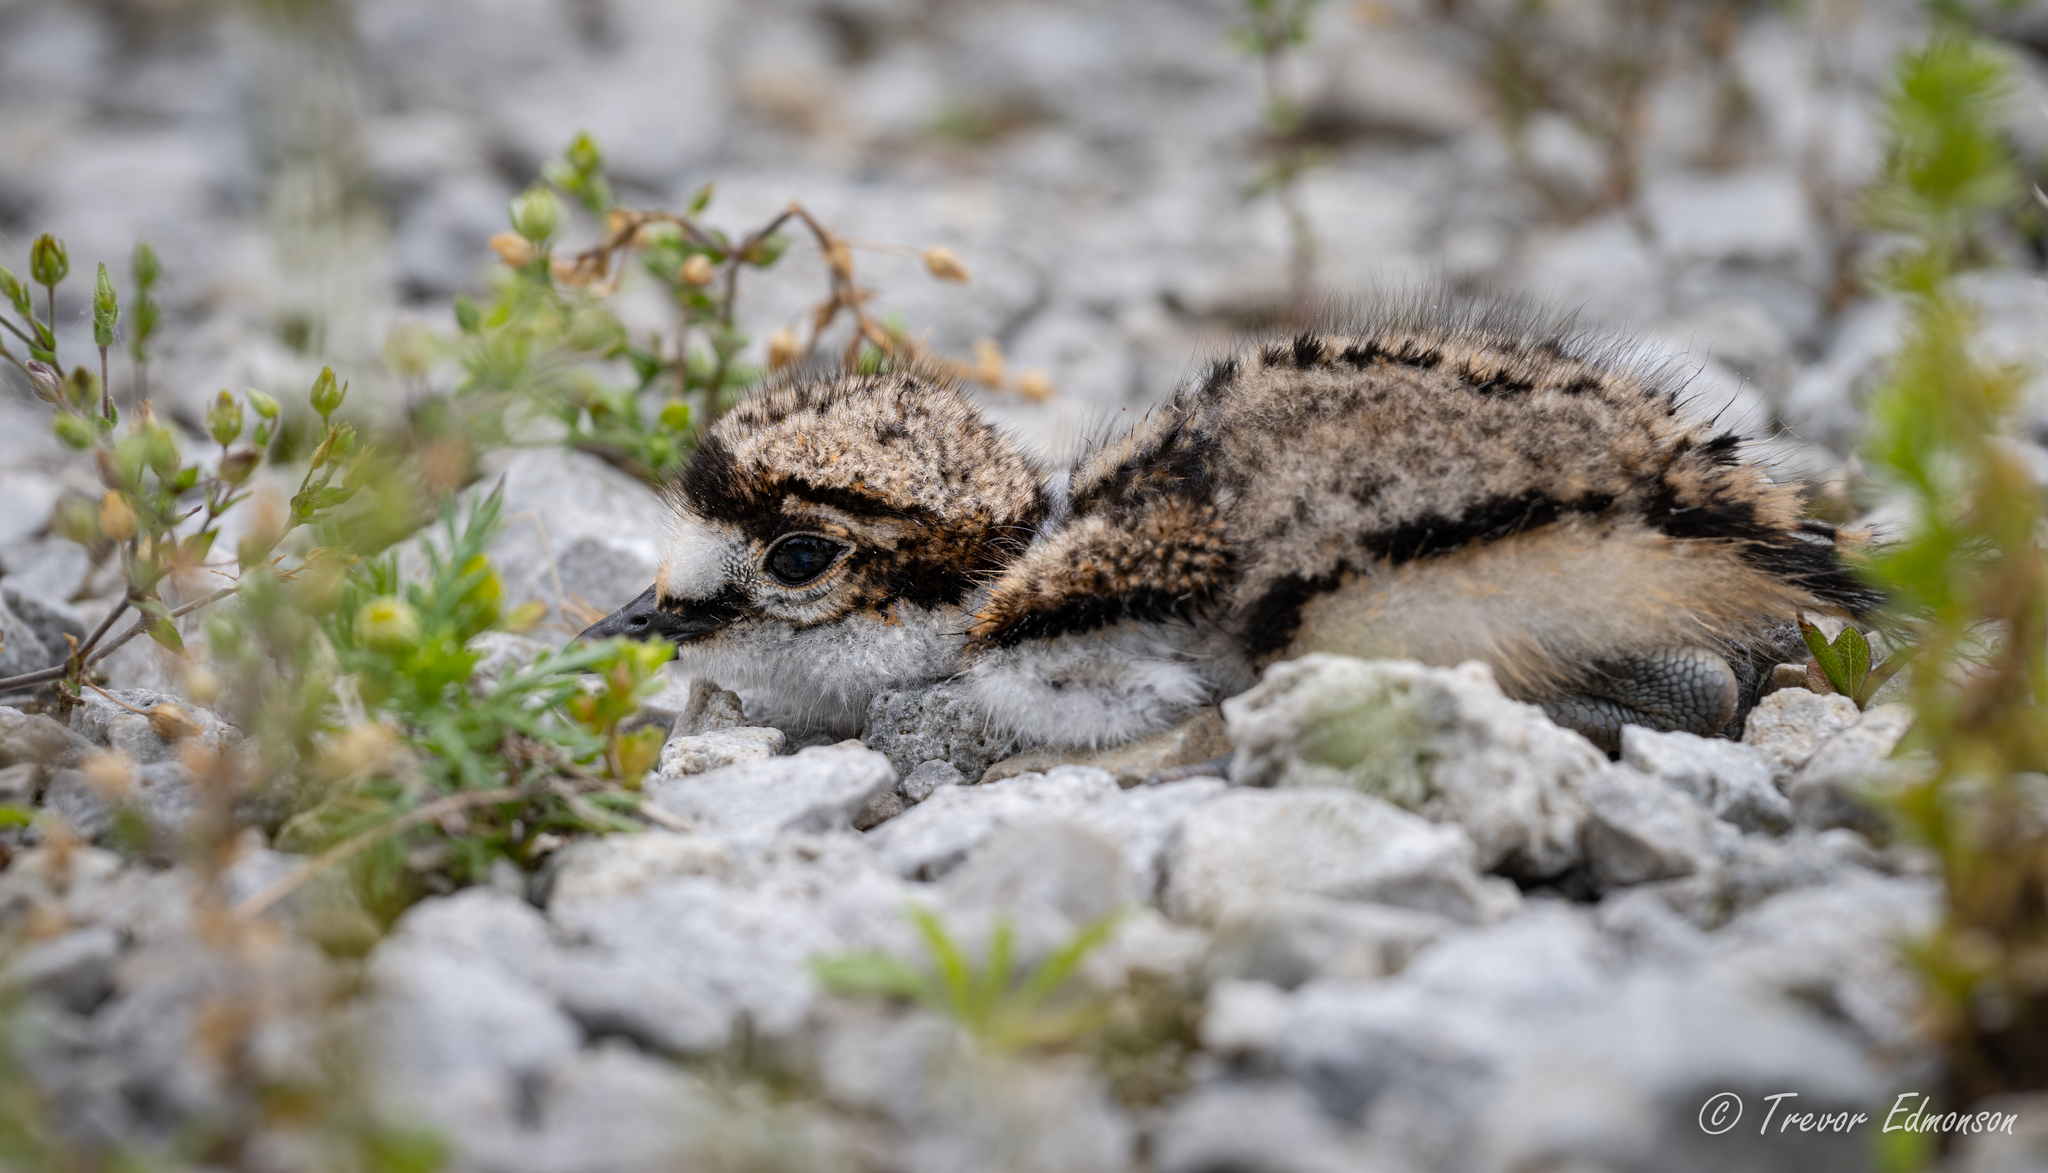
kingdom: Animalia
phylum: Chordata
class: Aves
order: Charadriiformes
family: Charadriidae
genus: Charadrius
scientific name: Charadrius vociferus
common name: Killdeer
